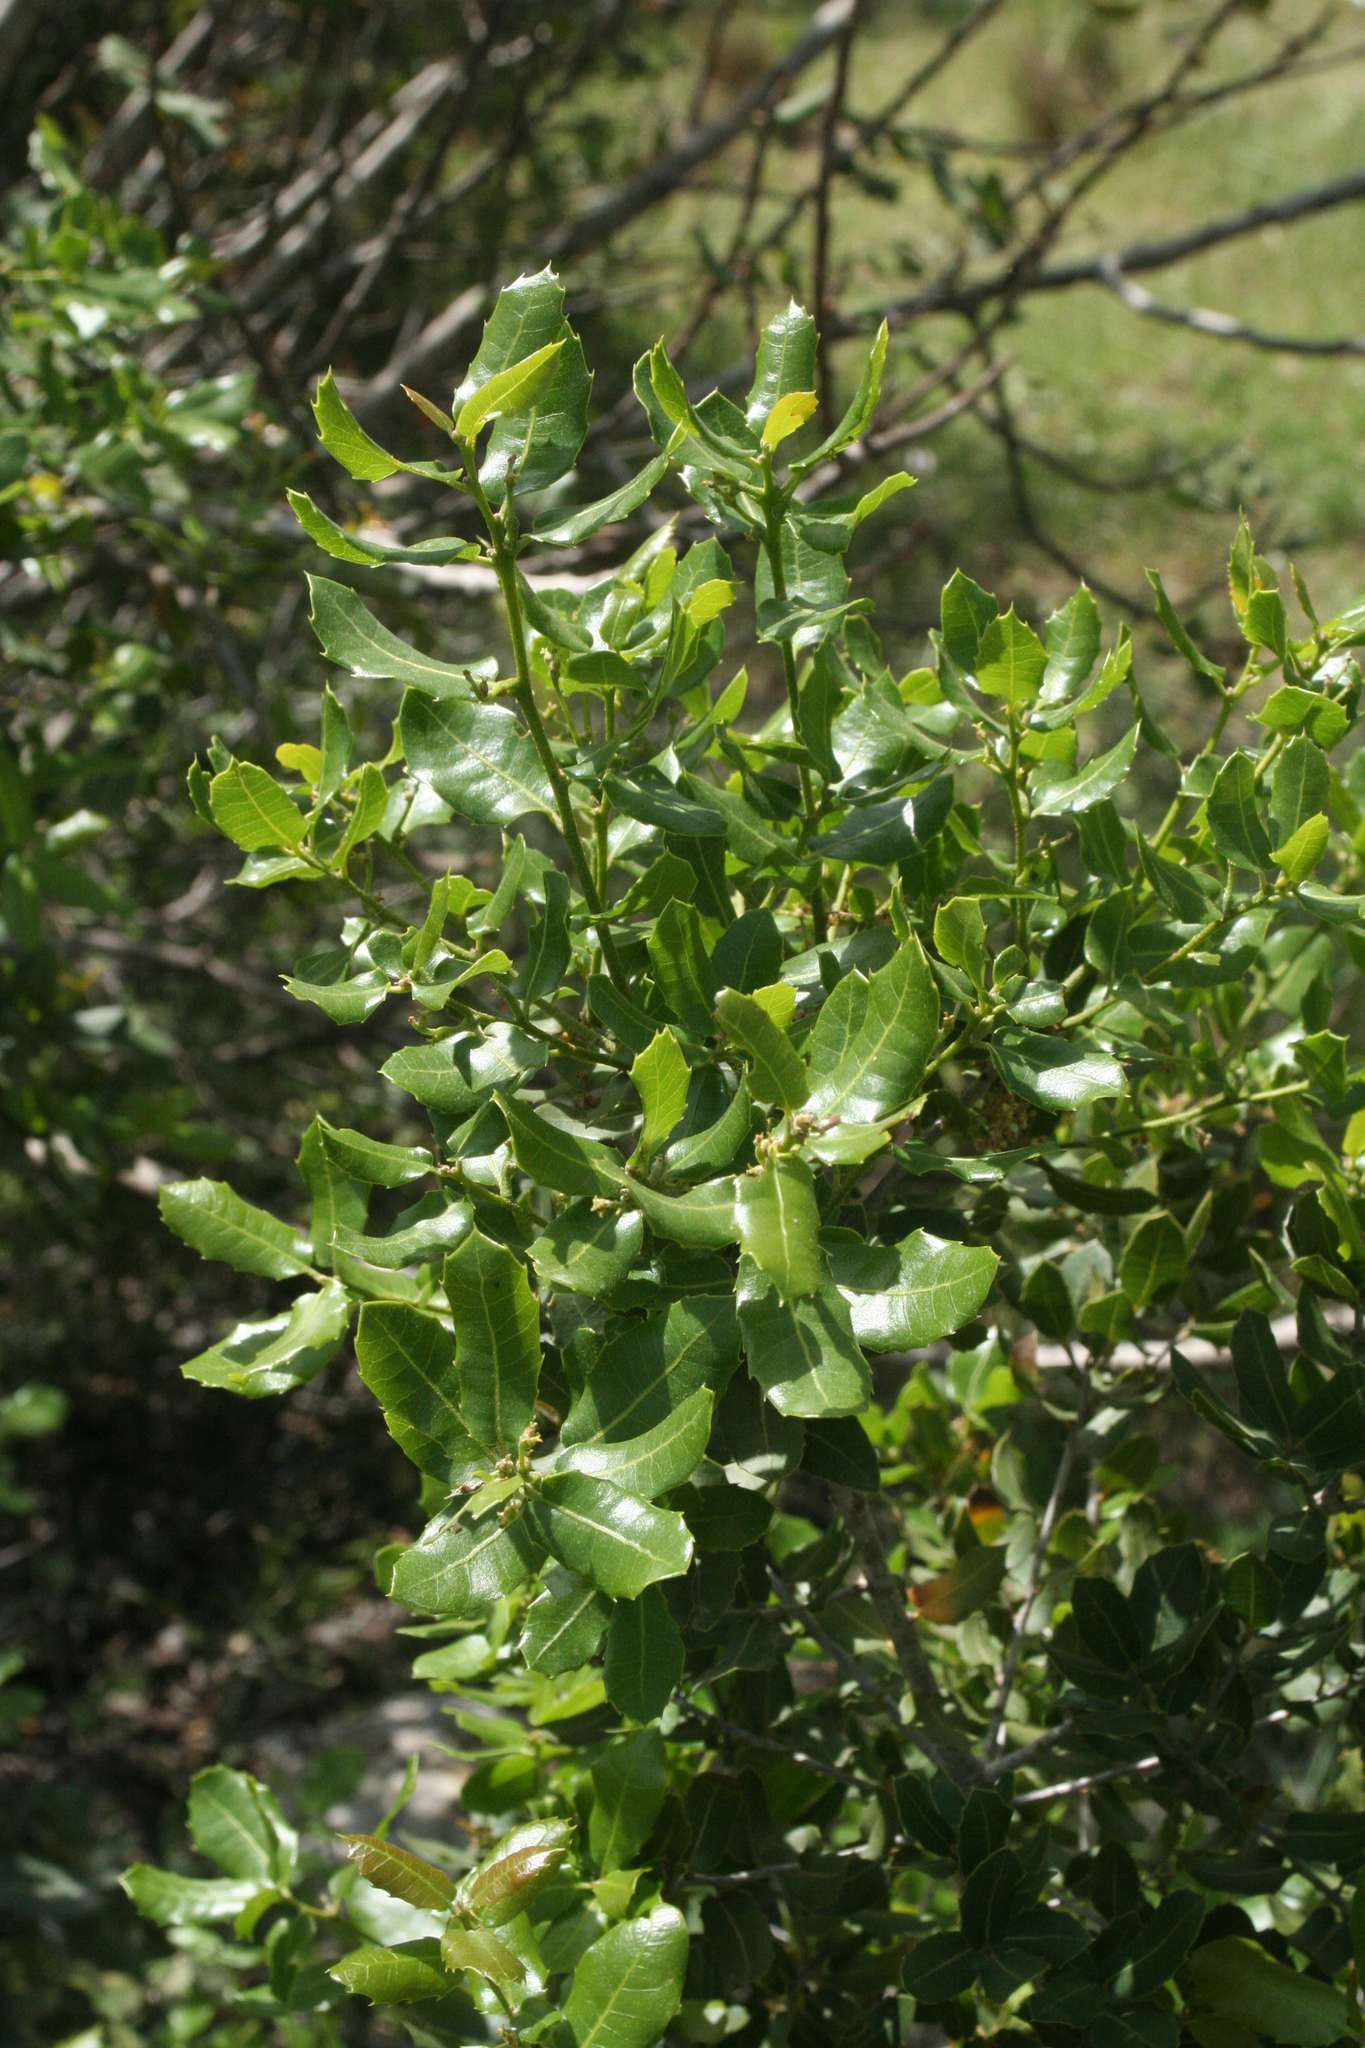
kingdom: Plantae
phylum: Tracheophyta
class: Magnoliopsida
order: Fagales
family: Fagaceae
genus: Quercus
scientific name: Quercus coccifera
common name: Kermes oak
